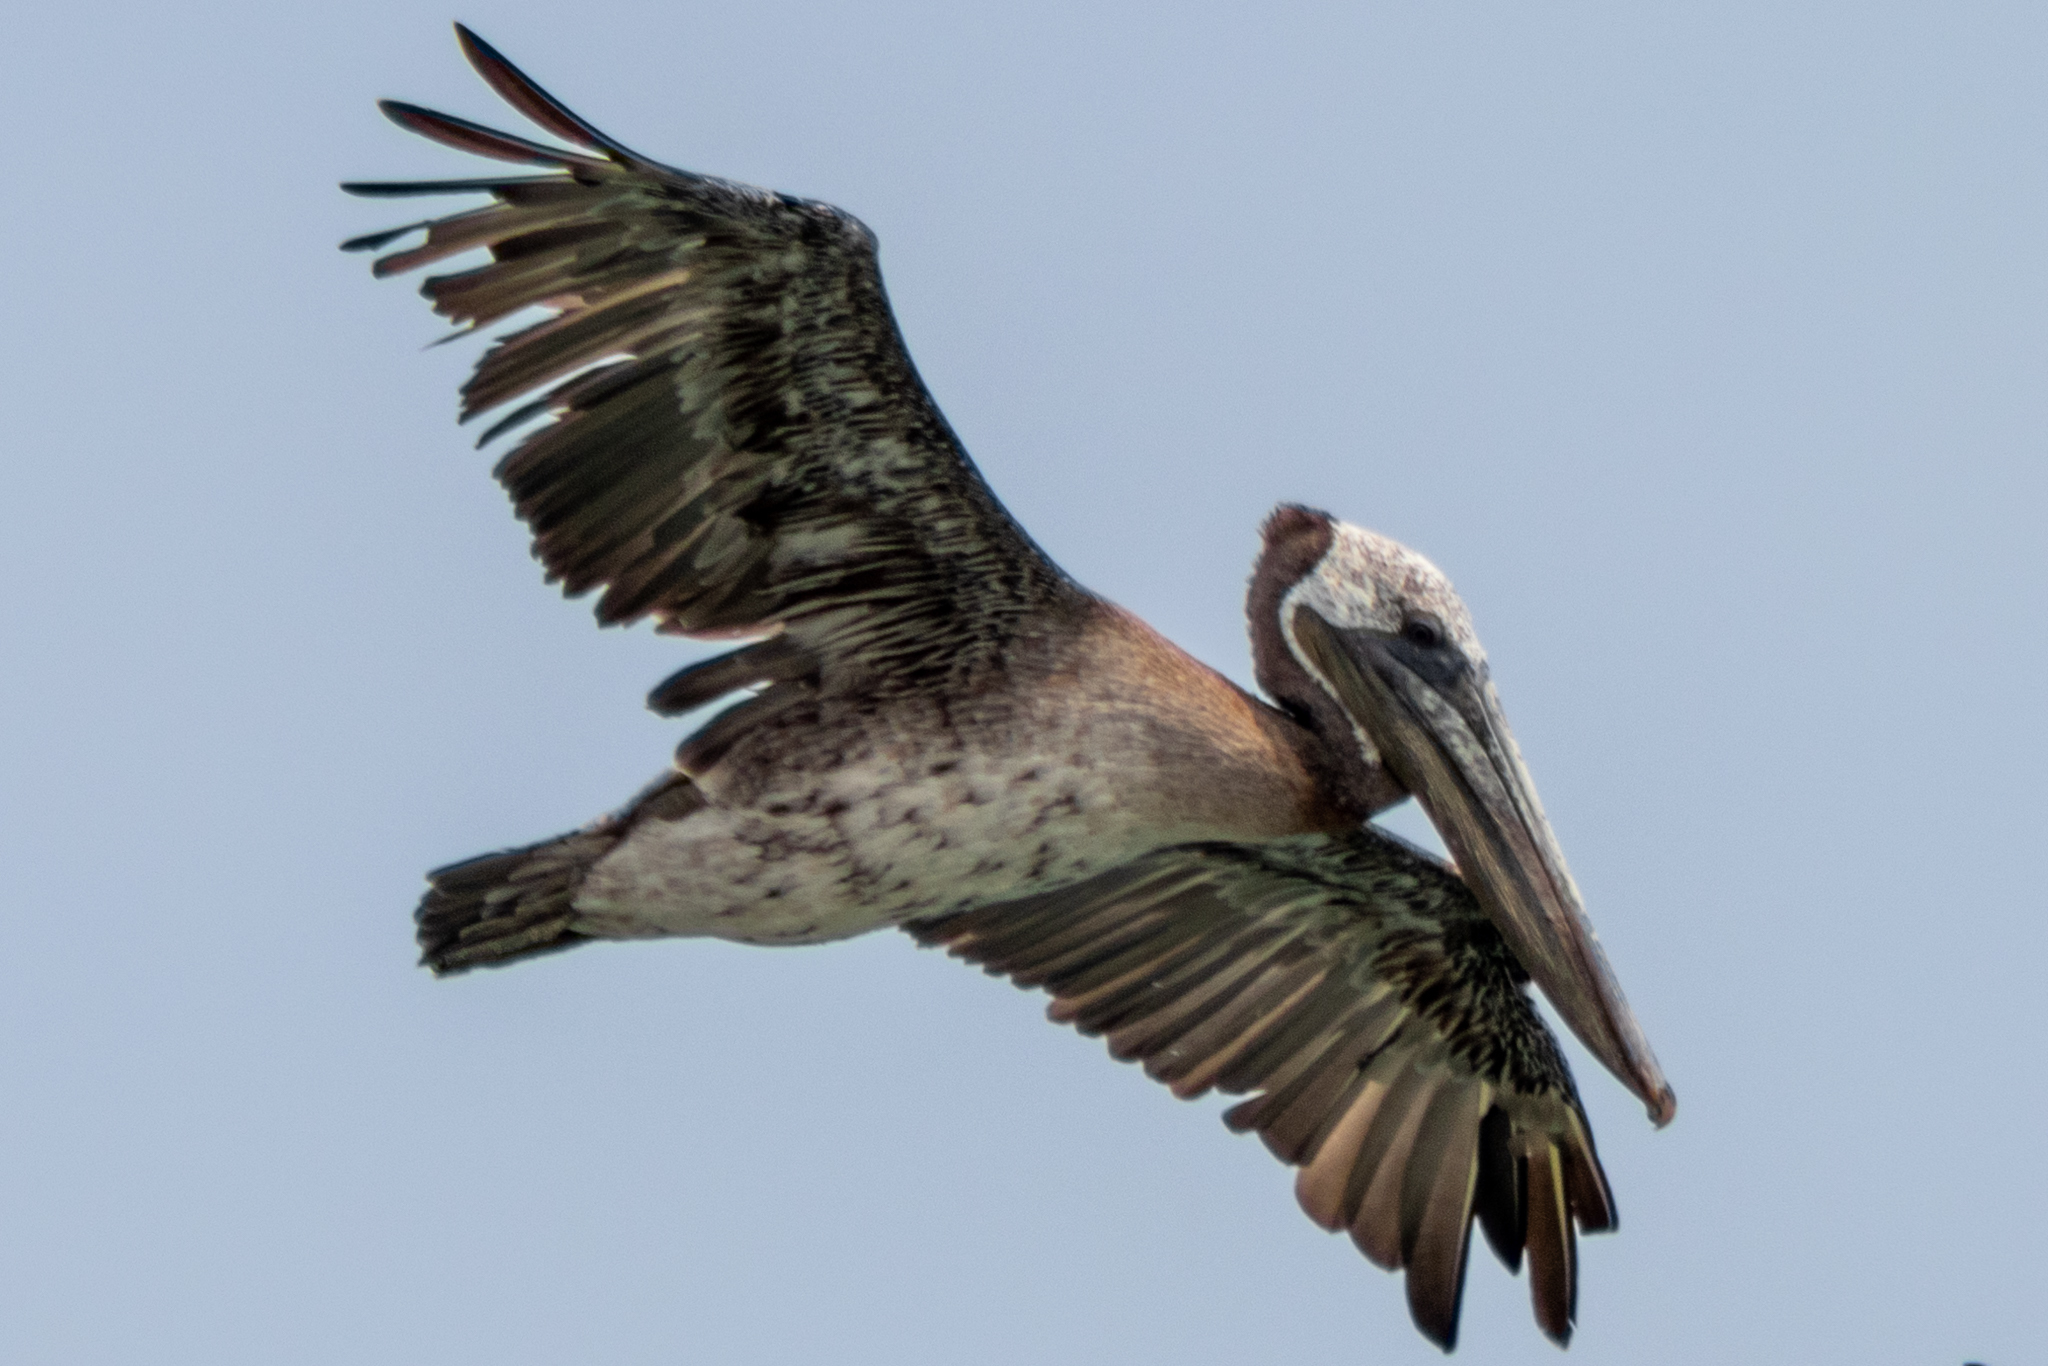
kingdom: Animalia
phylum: Chordata
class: Aves
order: Pelecaniformes
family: Pelecanidae
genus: Pelecanus
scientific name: Pelecanus occidentalis
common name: Brown pelican
